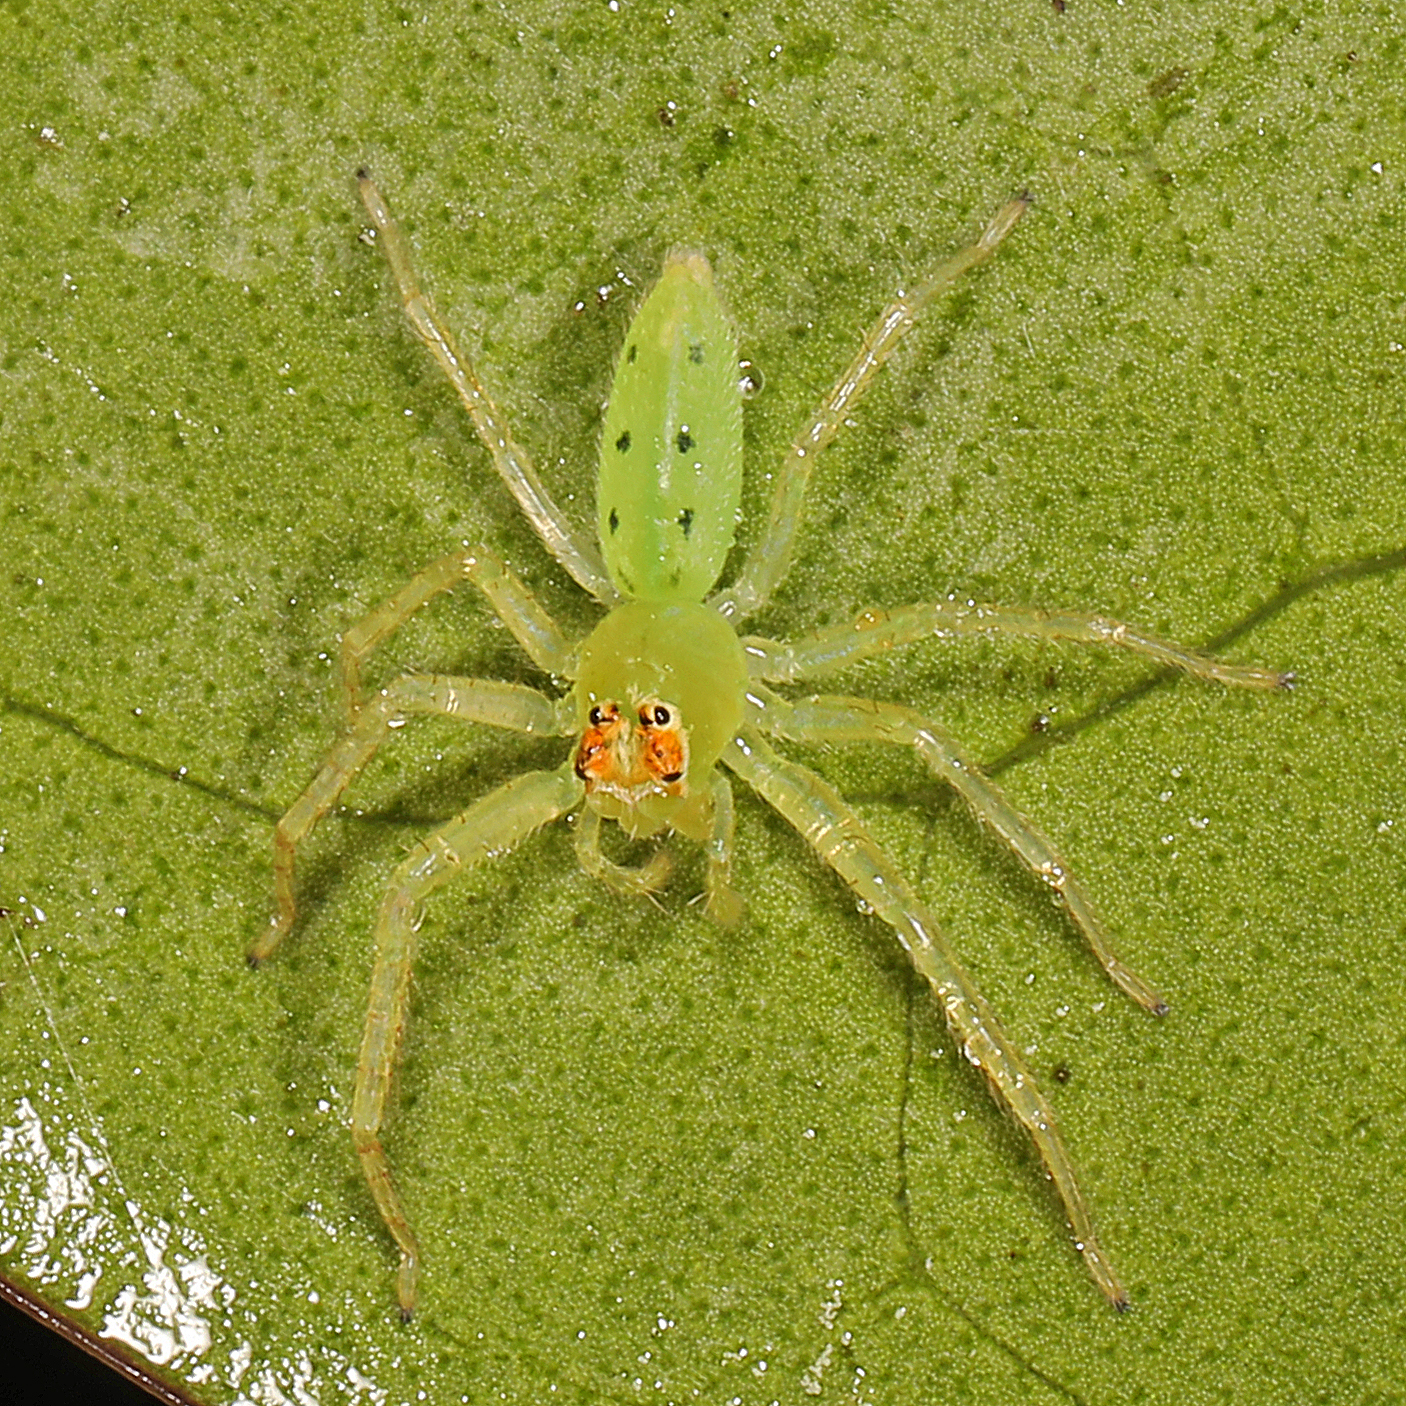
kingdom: Animalia
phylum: Arthropoda
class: Arachnida
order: Araneae
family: Salticidae
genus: Lyssomanes
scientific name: Lyssomanes viridis
